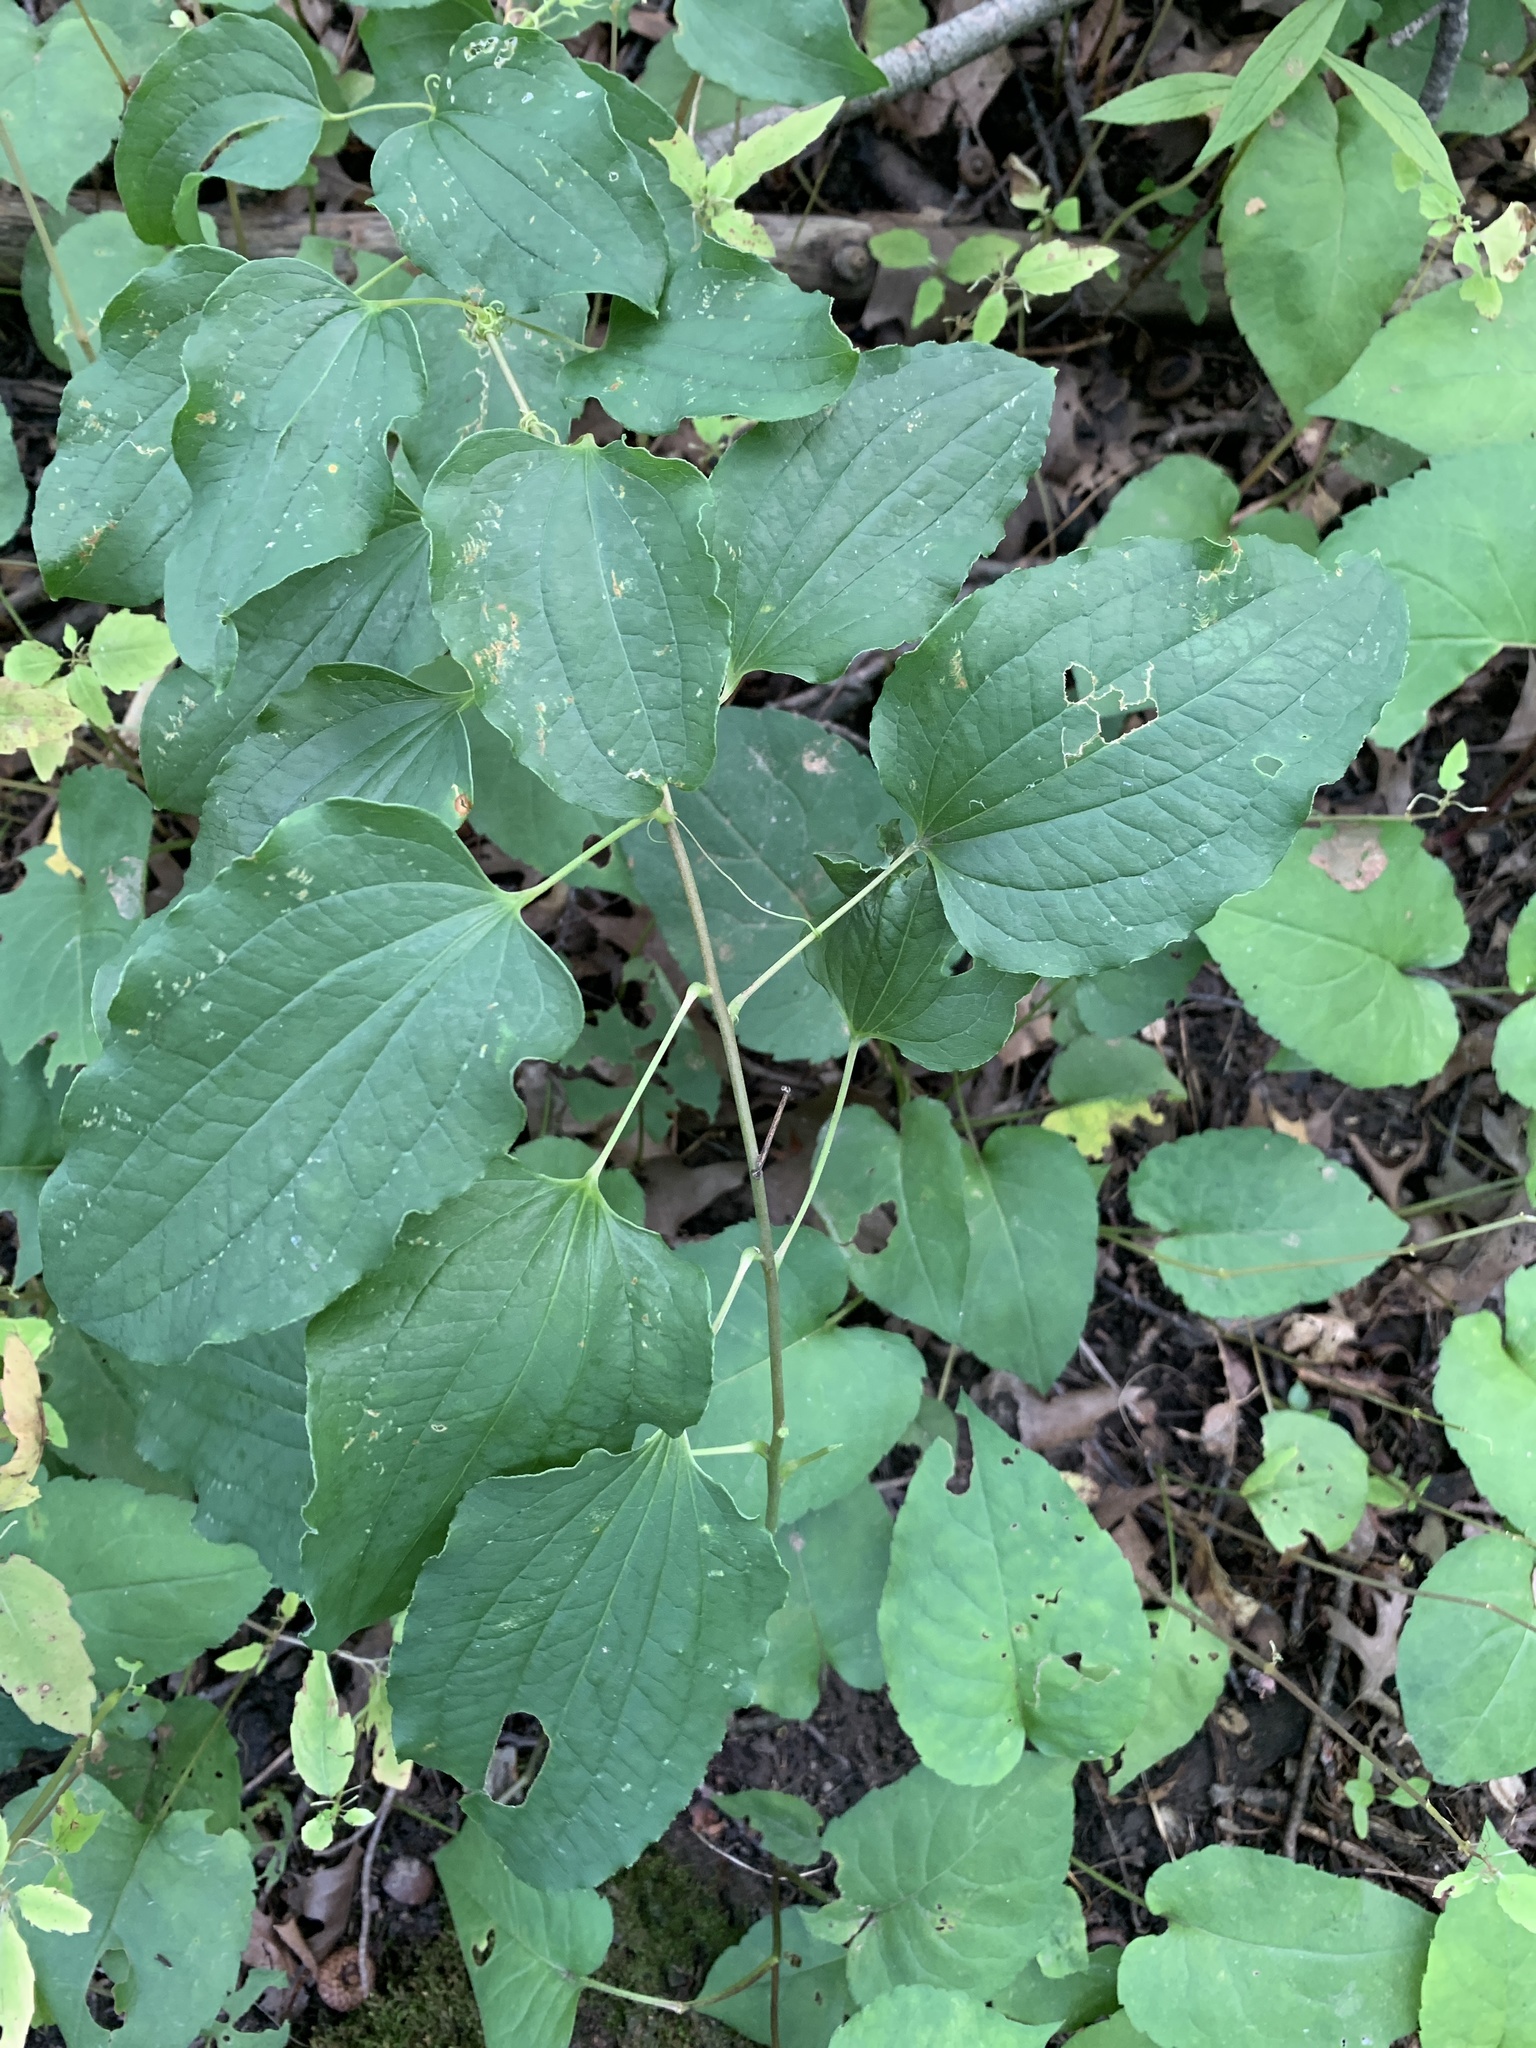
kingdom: Plantae
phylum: Tracheophyta
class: Liliopsida
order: Liliales
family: Smilacaceae
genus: Smilax
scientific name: Smilax herbacea
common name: Jacob's-ladder
